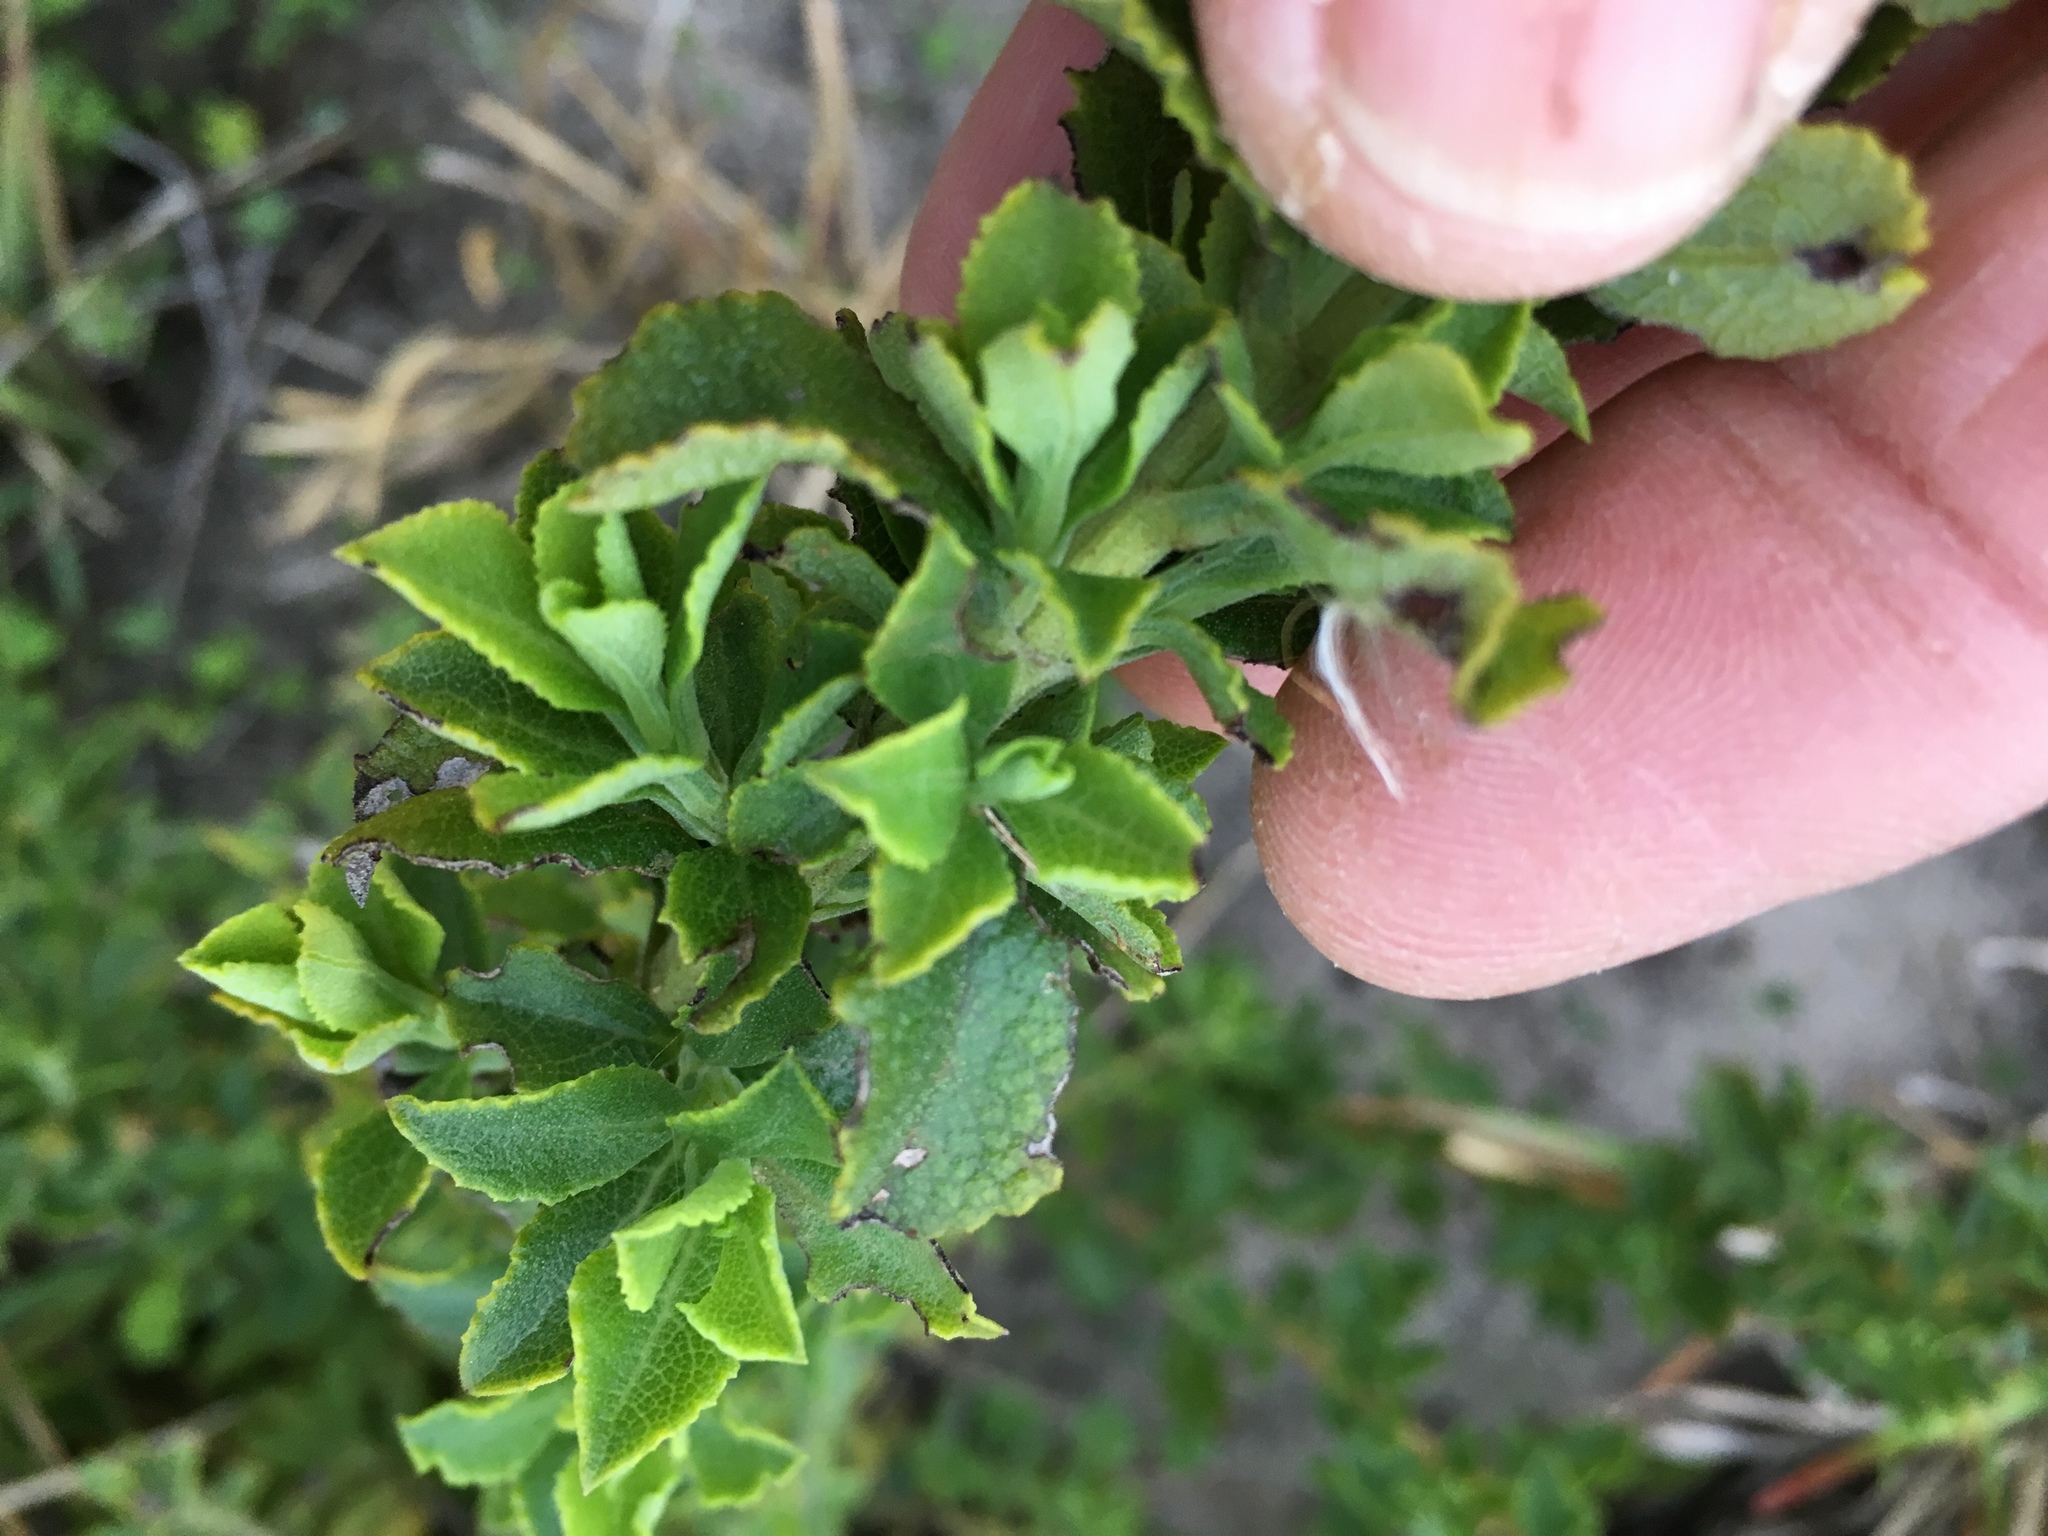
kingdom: Plantae
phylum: Tracheophyta
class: Magnoliopsida
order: Lamiales
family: Lamiaceae
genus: Salvia
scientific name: Salvia chamelaeagnea
